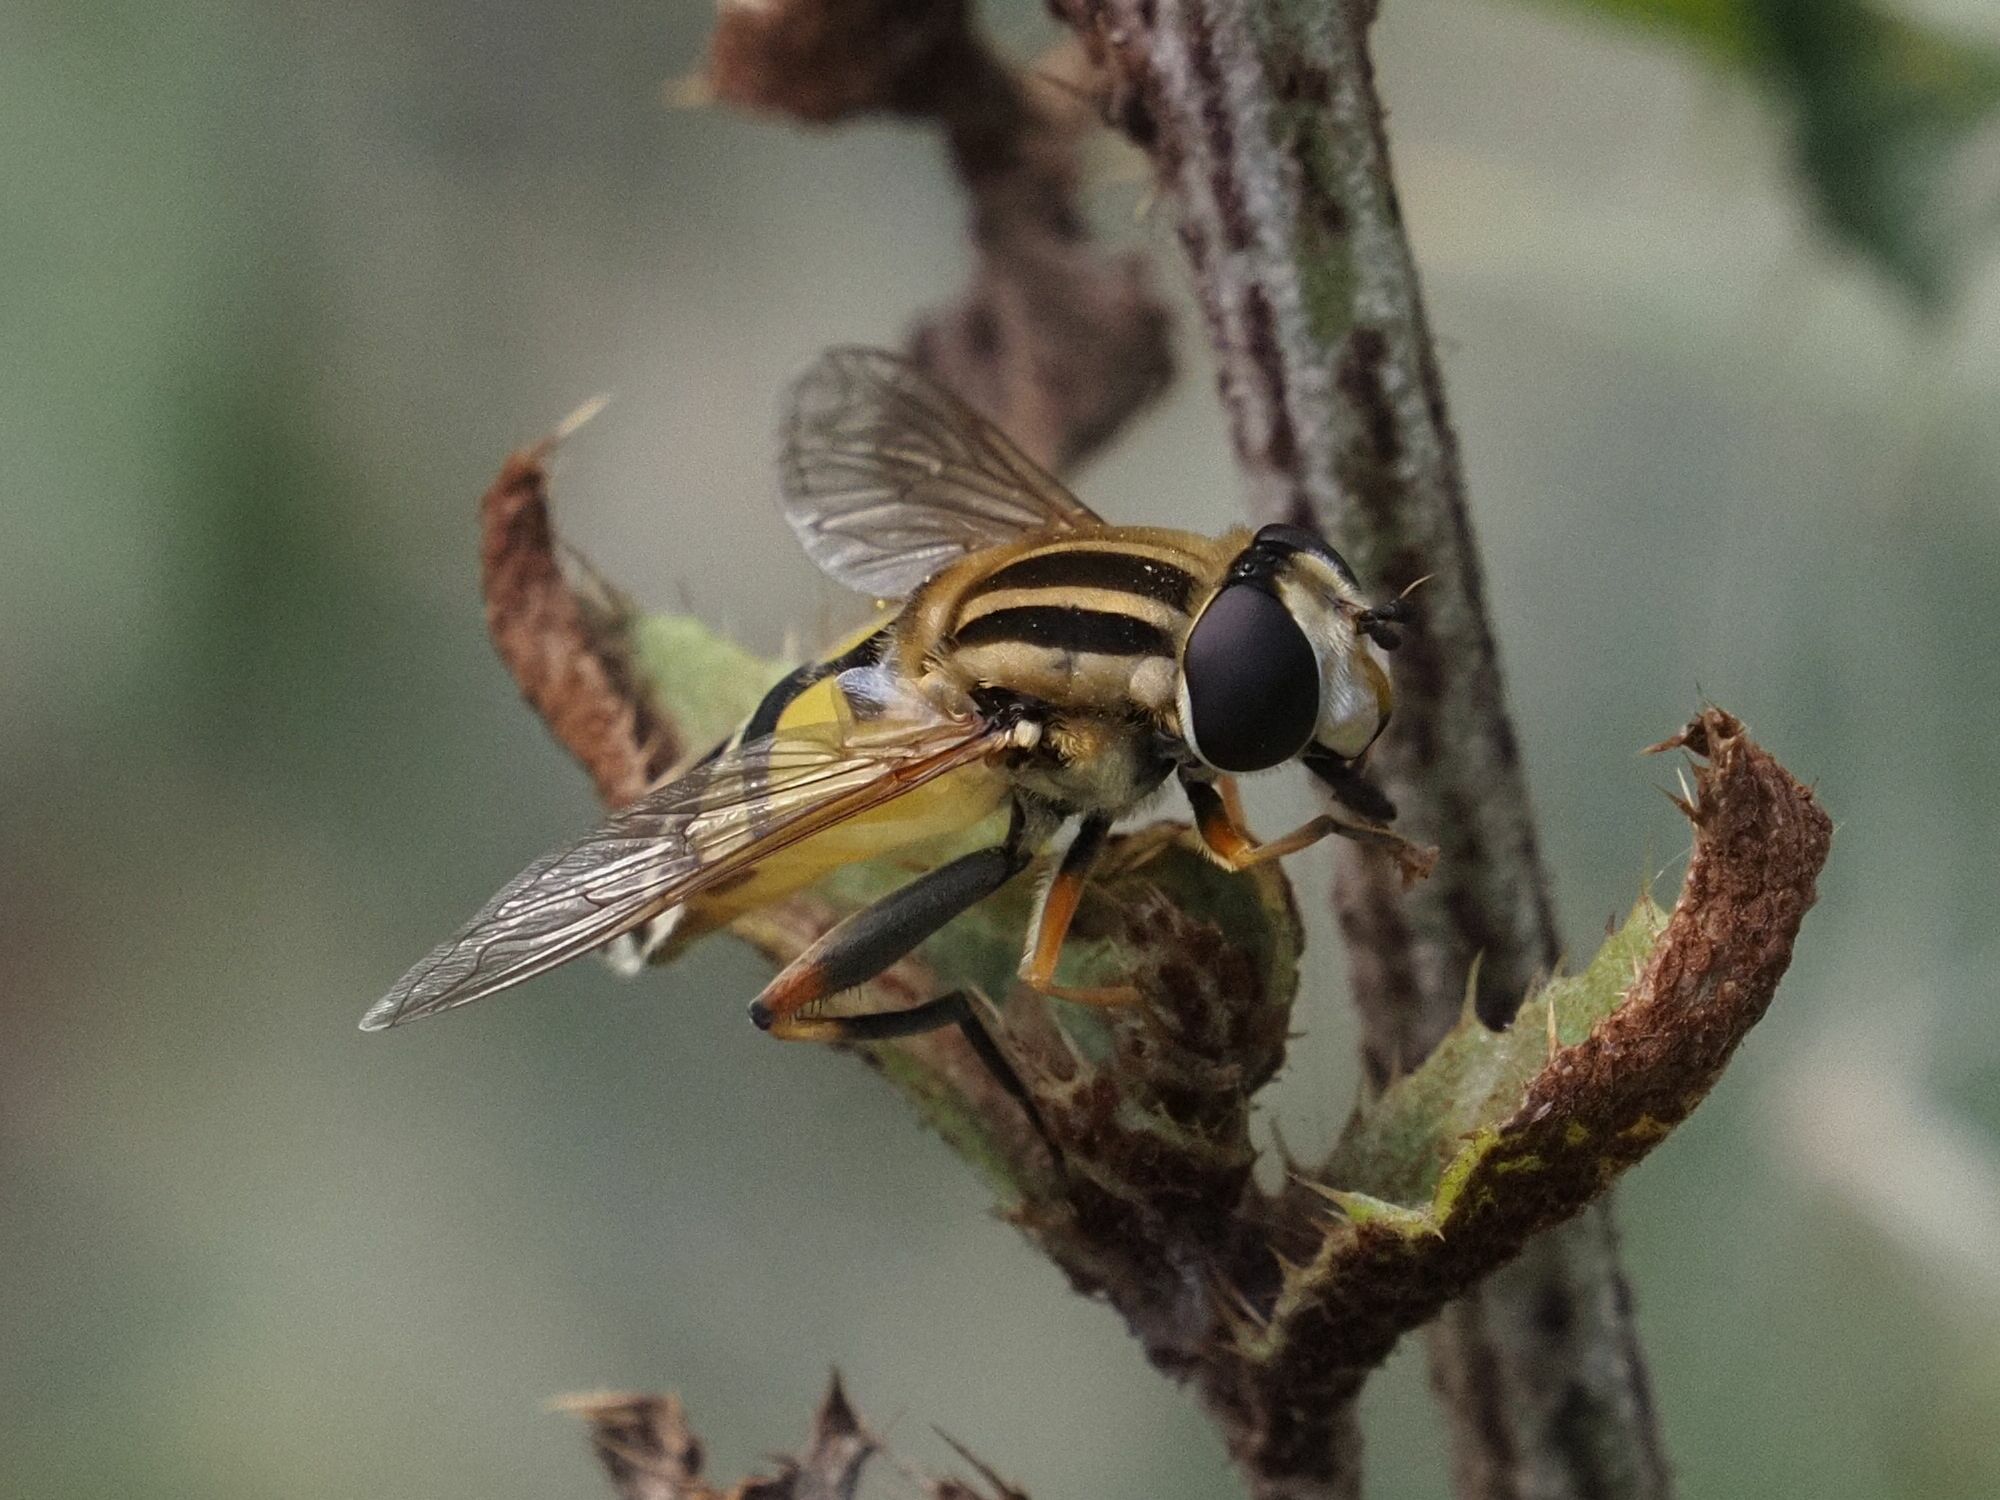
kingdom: Animalia
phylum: Arthropoda
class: Insecta
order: Diptera
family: Syrphidae
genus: Helophilus
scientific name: Helophilus trivittatus
